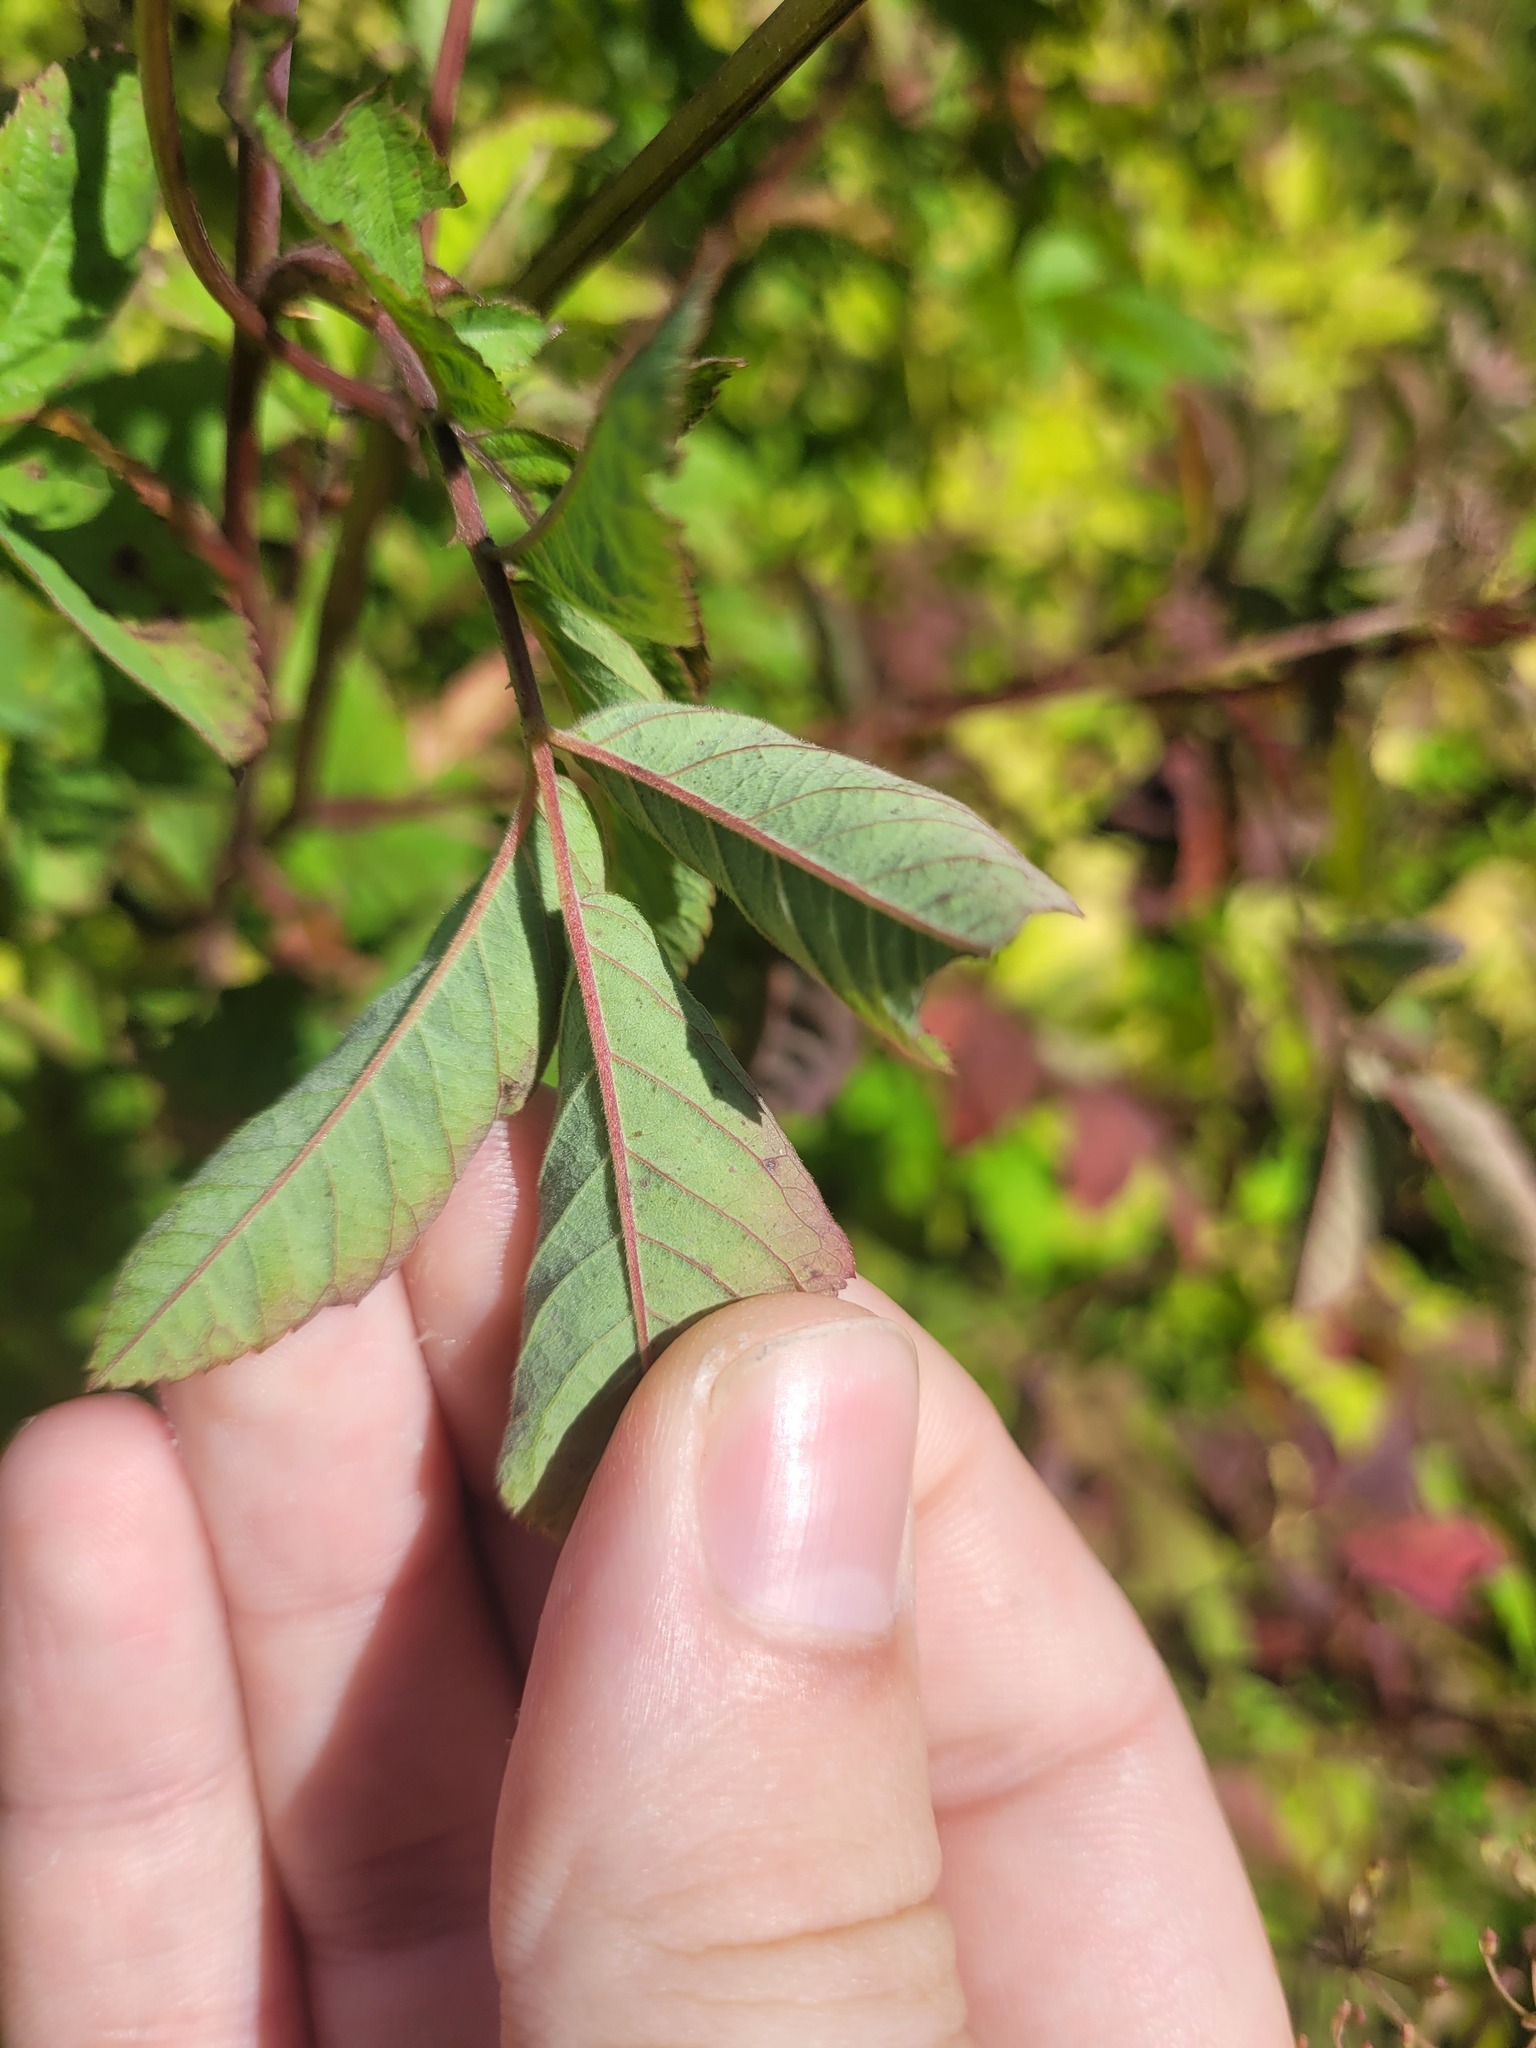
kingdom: Plantae
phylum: Tracheophyta
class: Magnoliopsida
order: Rosales
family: Rosaceae
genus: Rosa
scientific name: Rosa majalis
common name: Cinnamon rose
